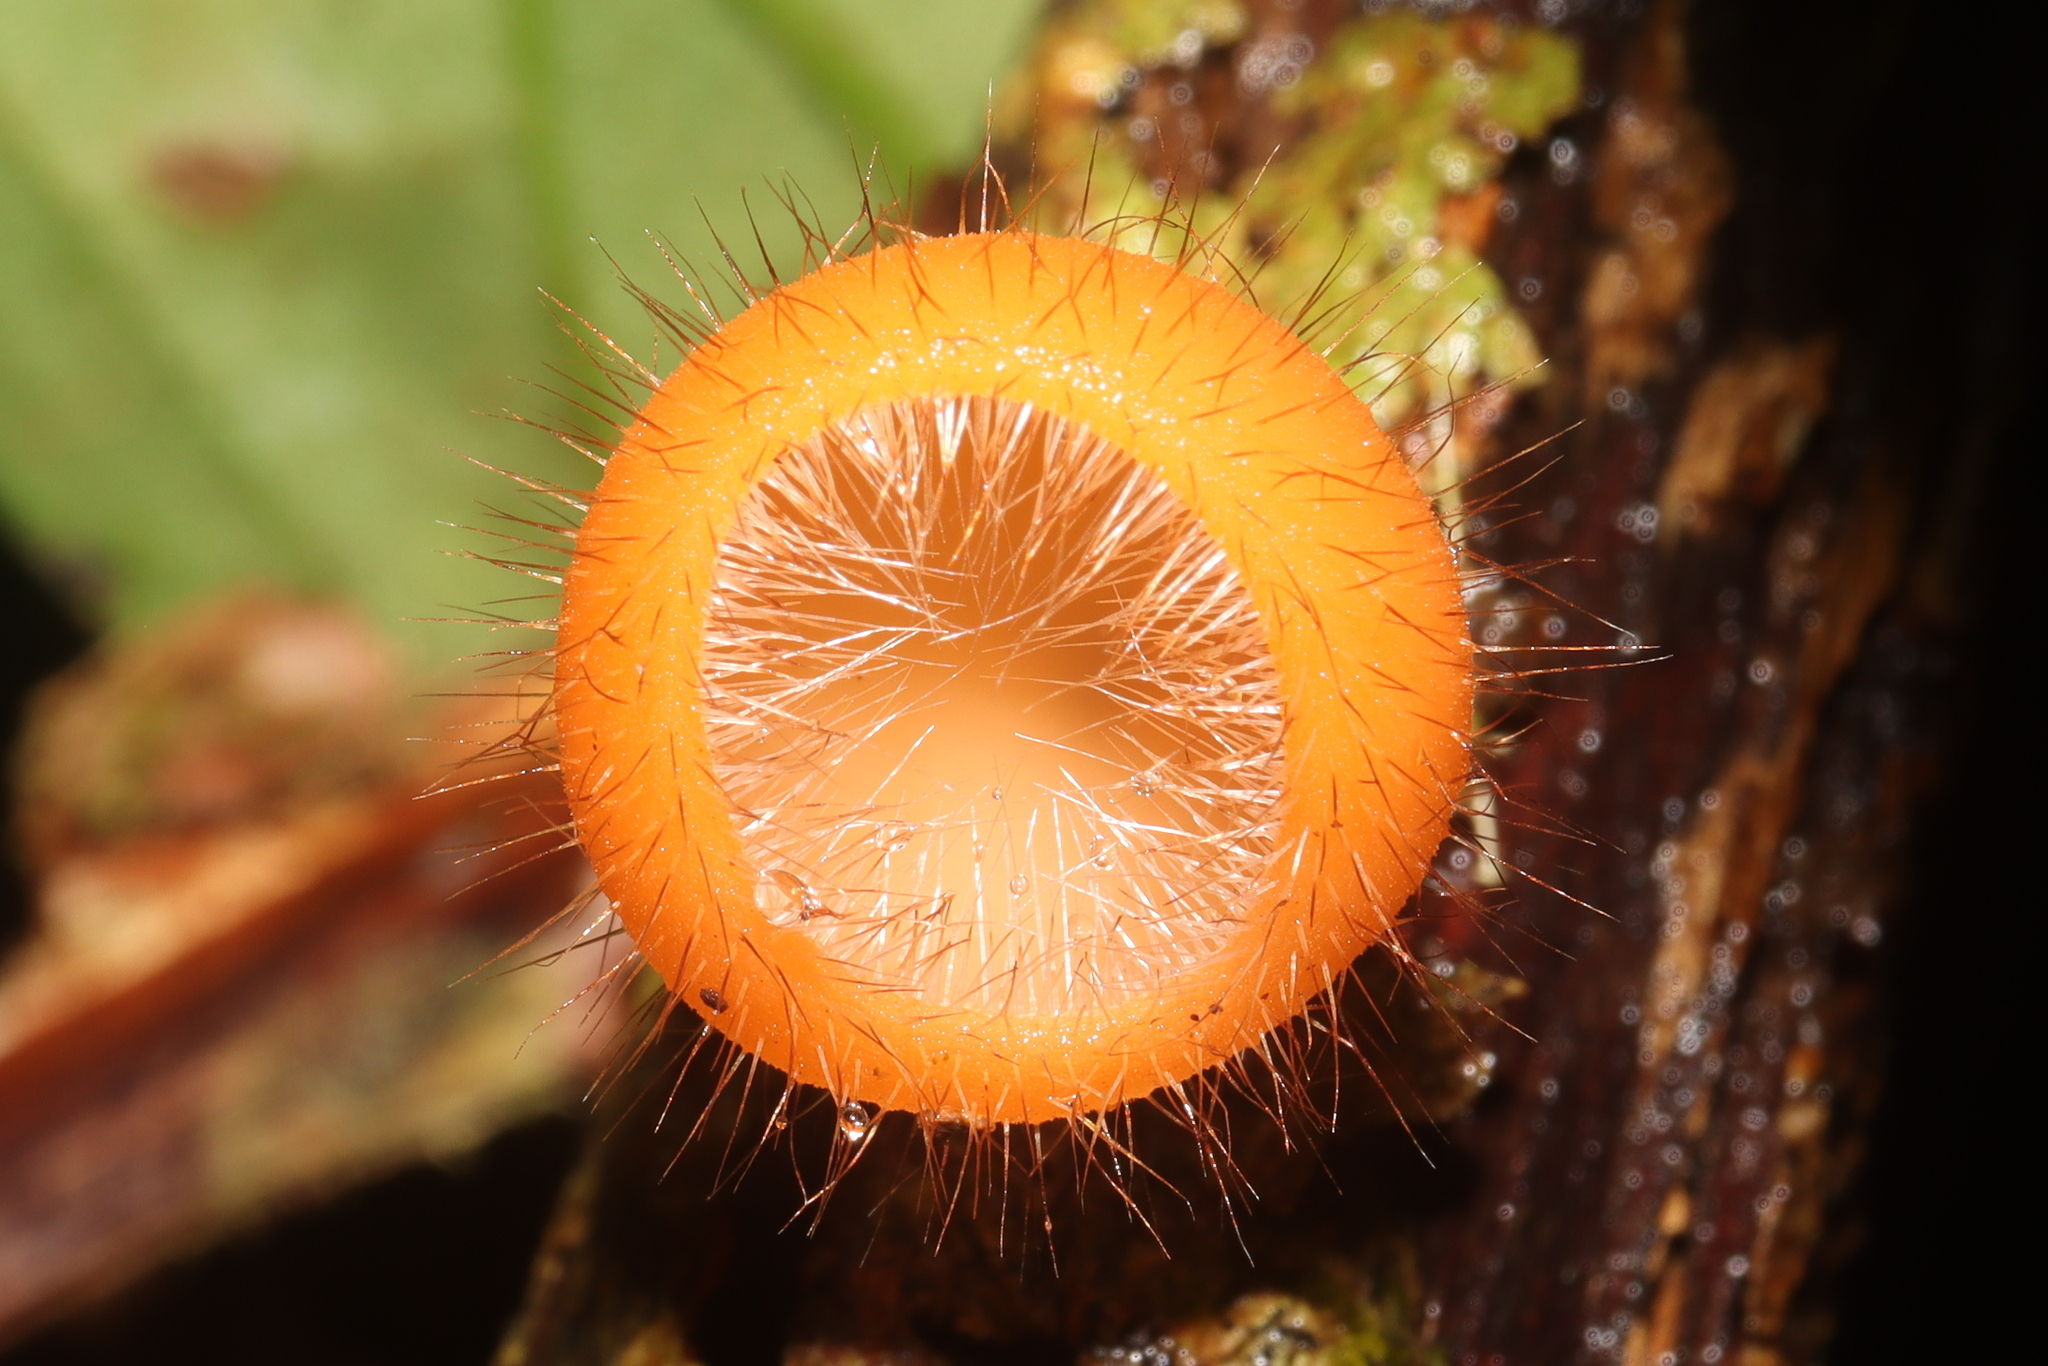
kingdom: Fungi
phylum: Ascomycota
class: Pezizomycetes
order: Pezizales
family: Sarcoscyphaceae
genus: Cookeina
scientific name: Cookeina tricholoma
